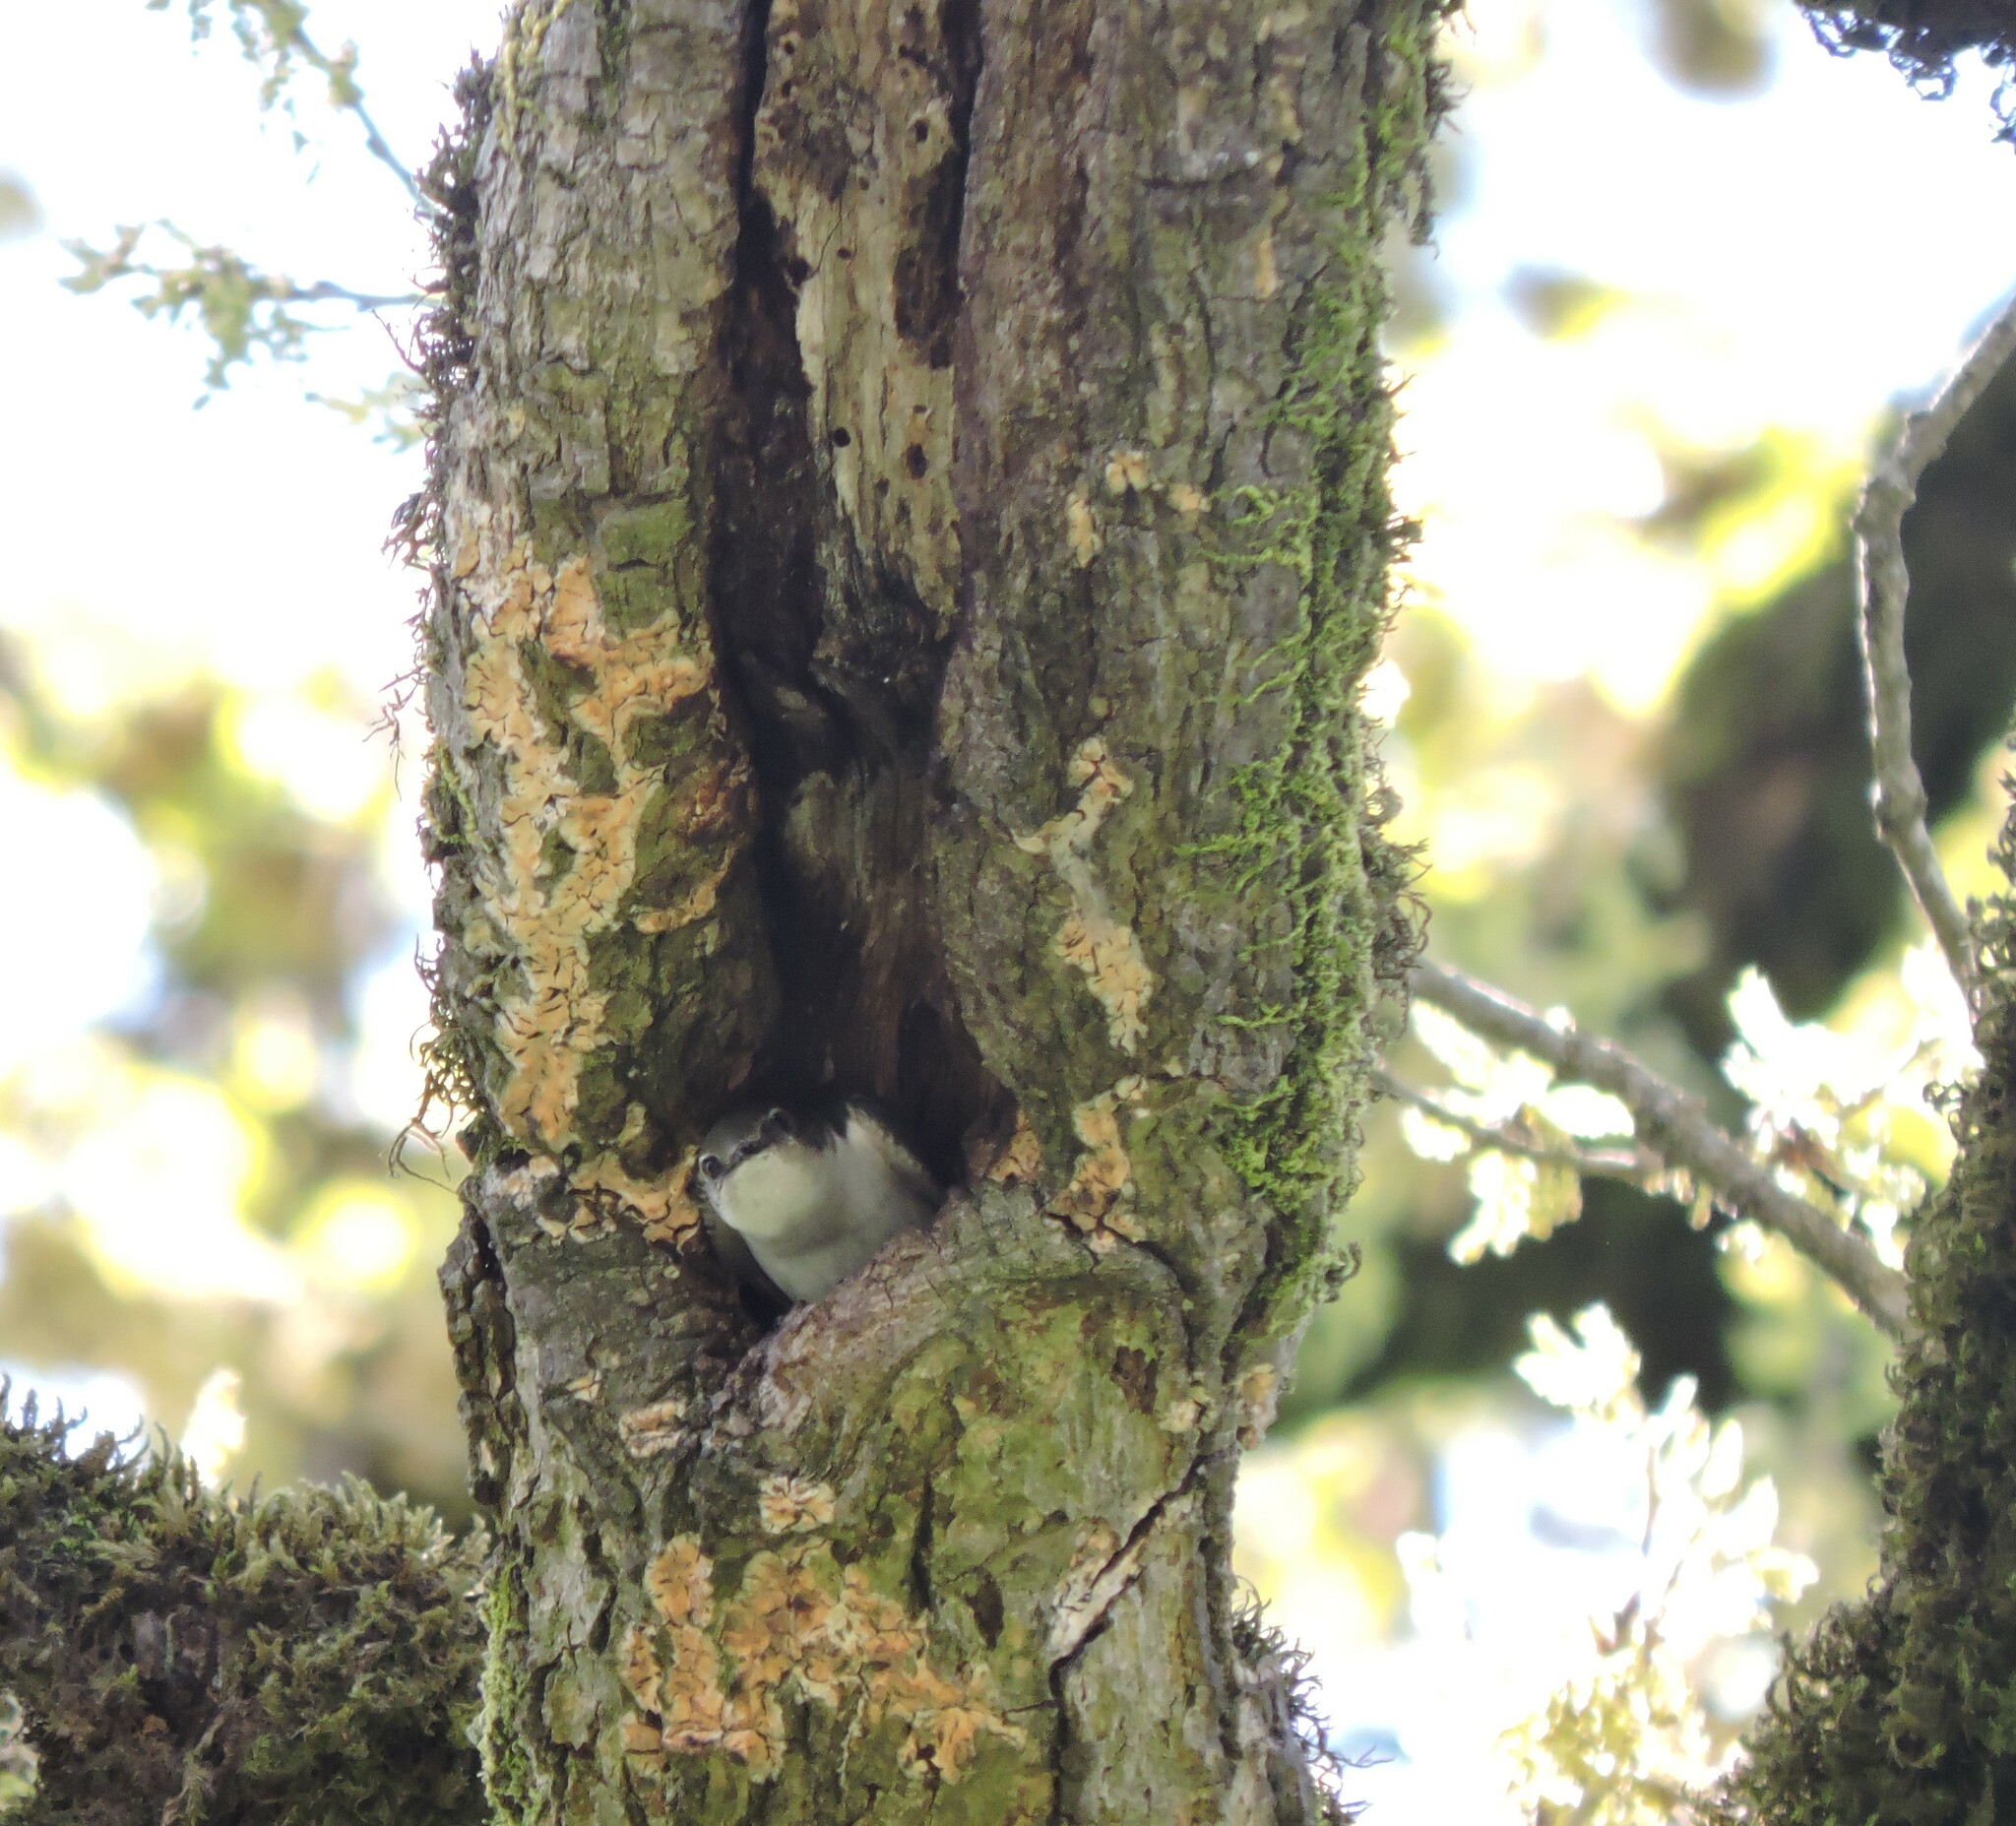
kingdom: Animalia
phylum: Chordata
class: Aves
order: Passeriformes
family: Hirundinidae
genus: Tachycineta
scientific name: Tachycineta thalassina
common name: Violet-green swallow
